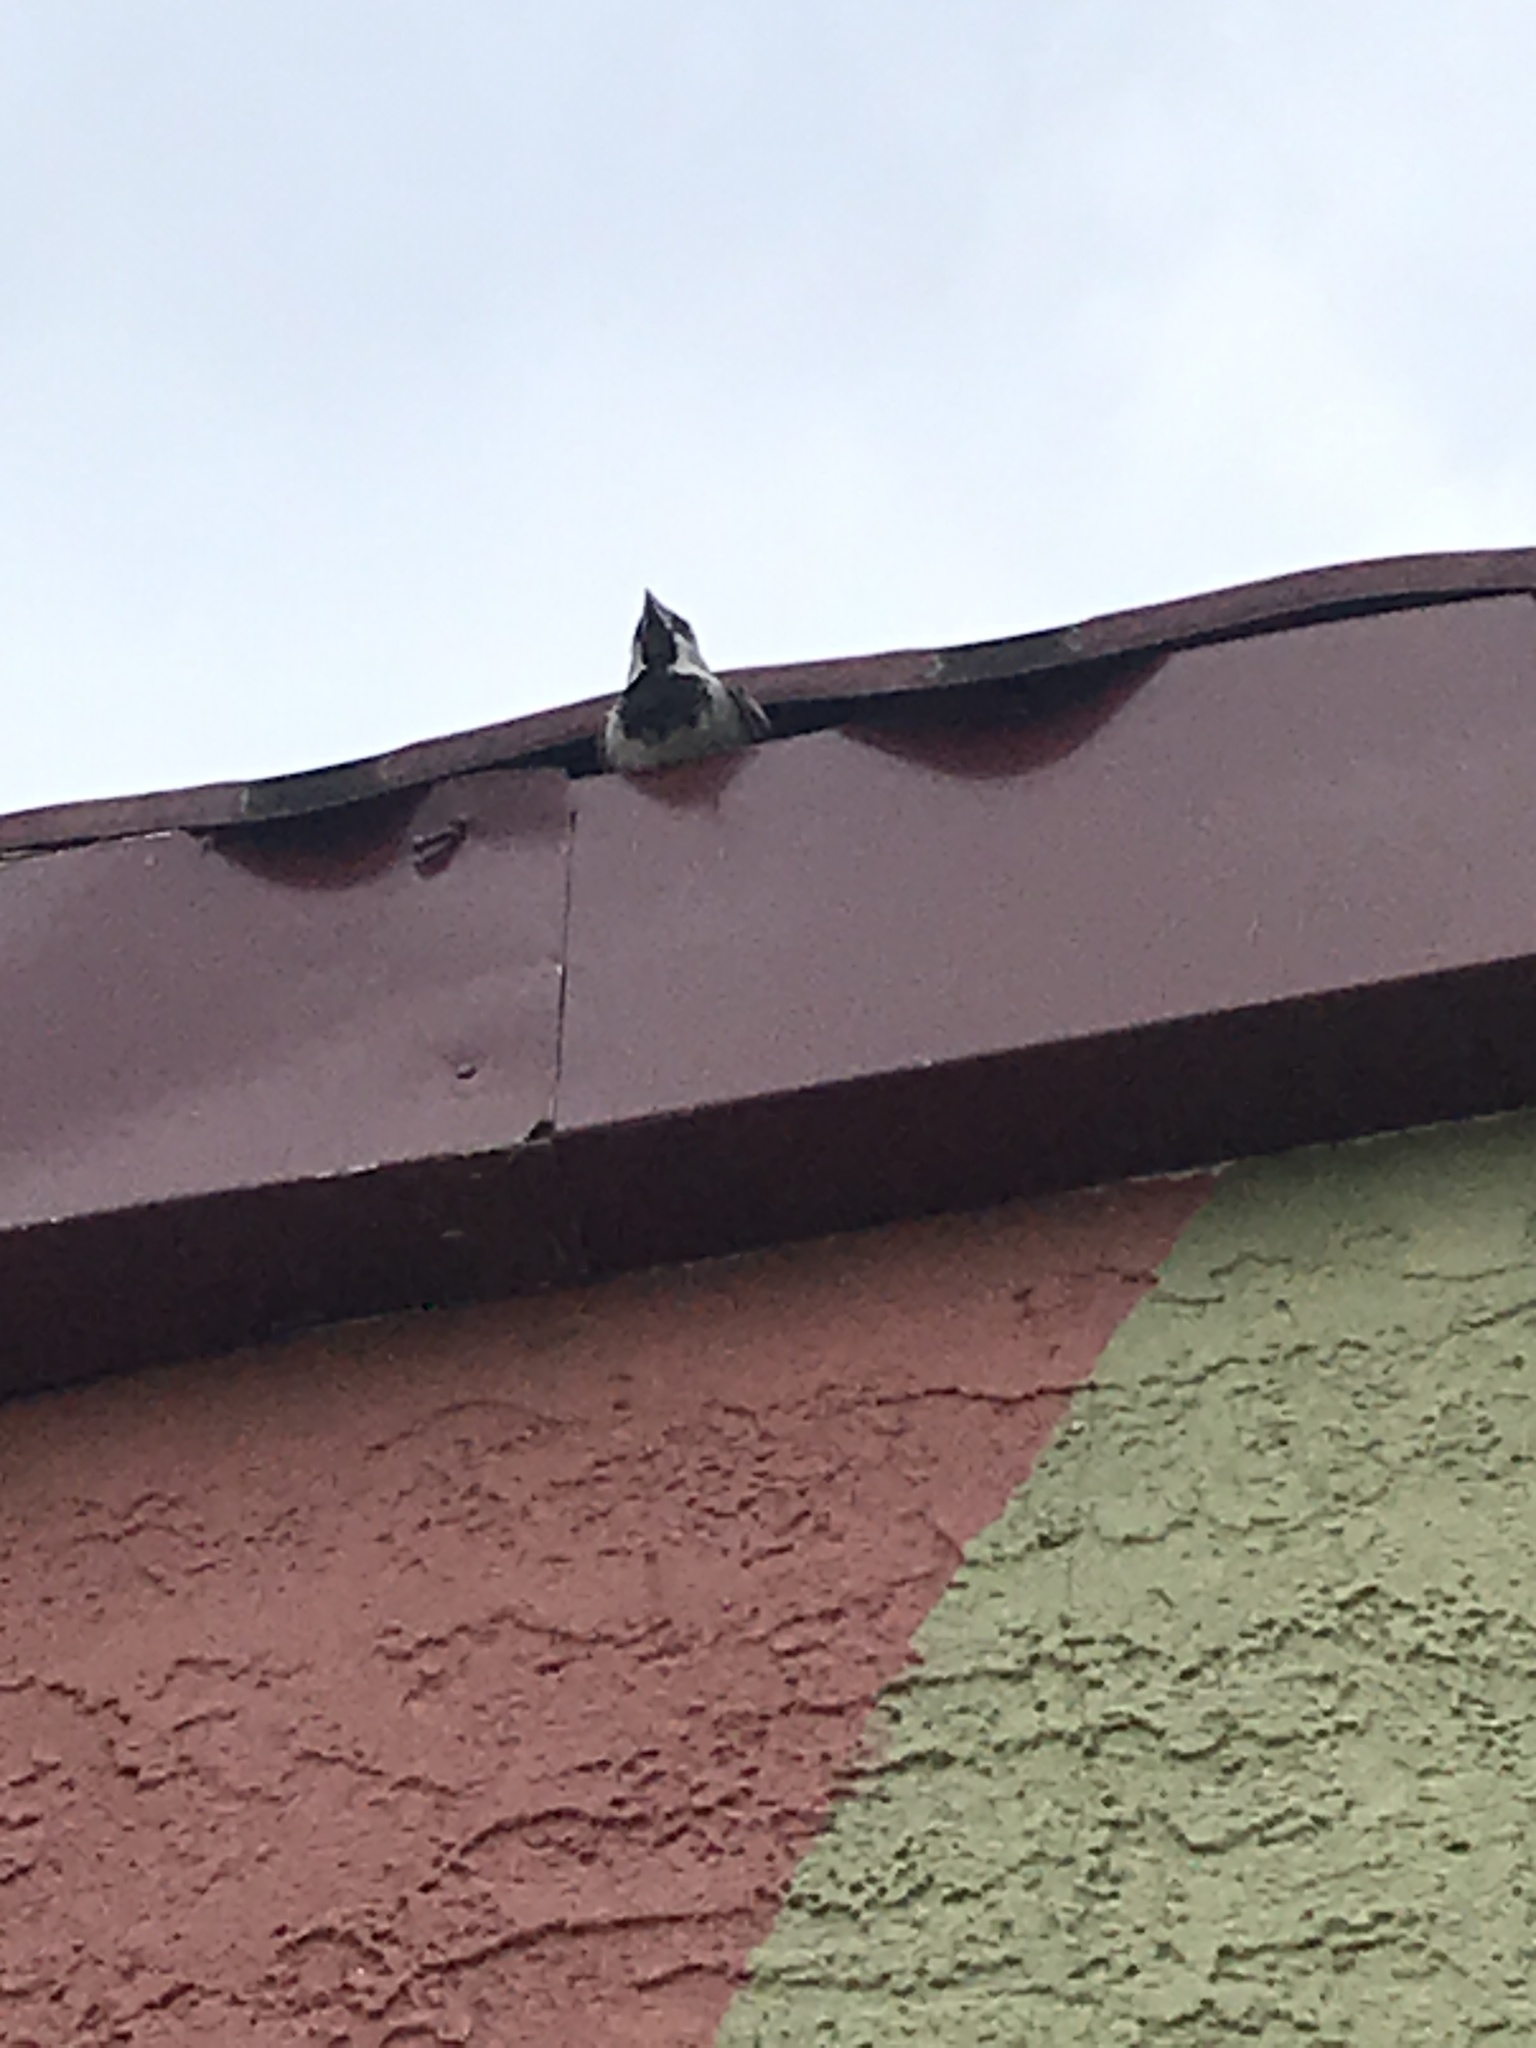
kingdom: Animalia
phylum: Chordata
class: Aves
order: Passeriformes
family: Passeridae
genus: Passer
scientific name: Passer domesticus
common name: House sparrow
